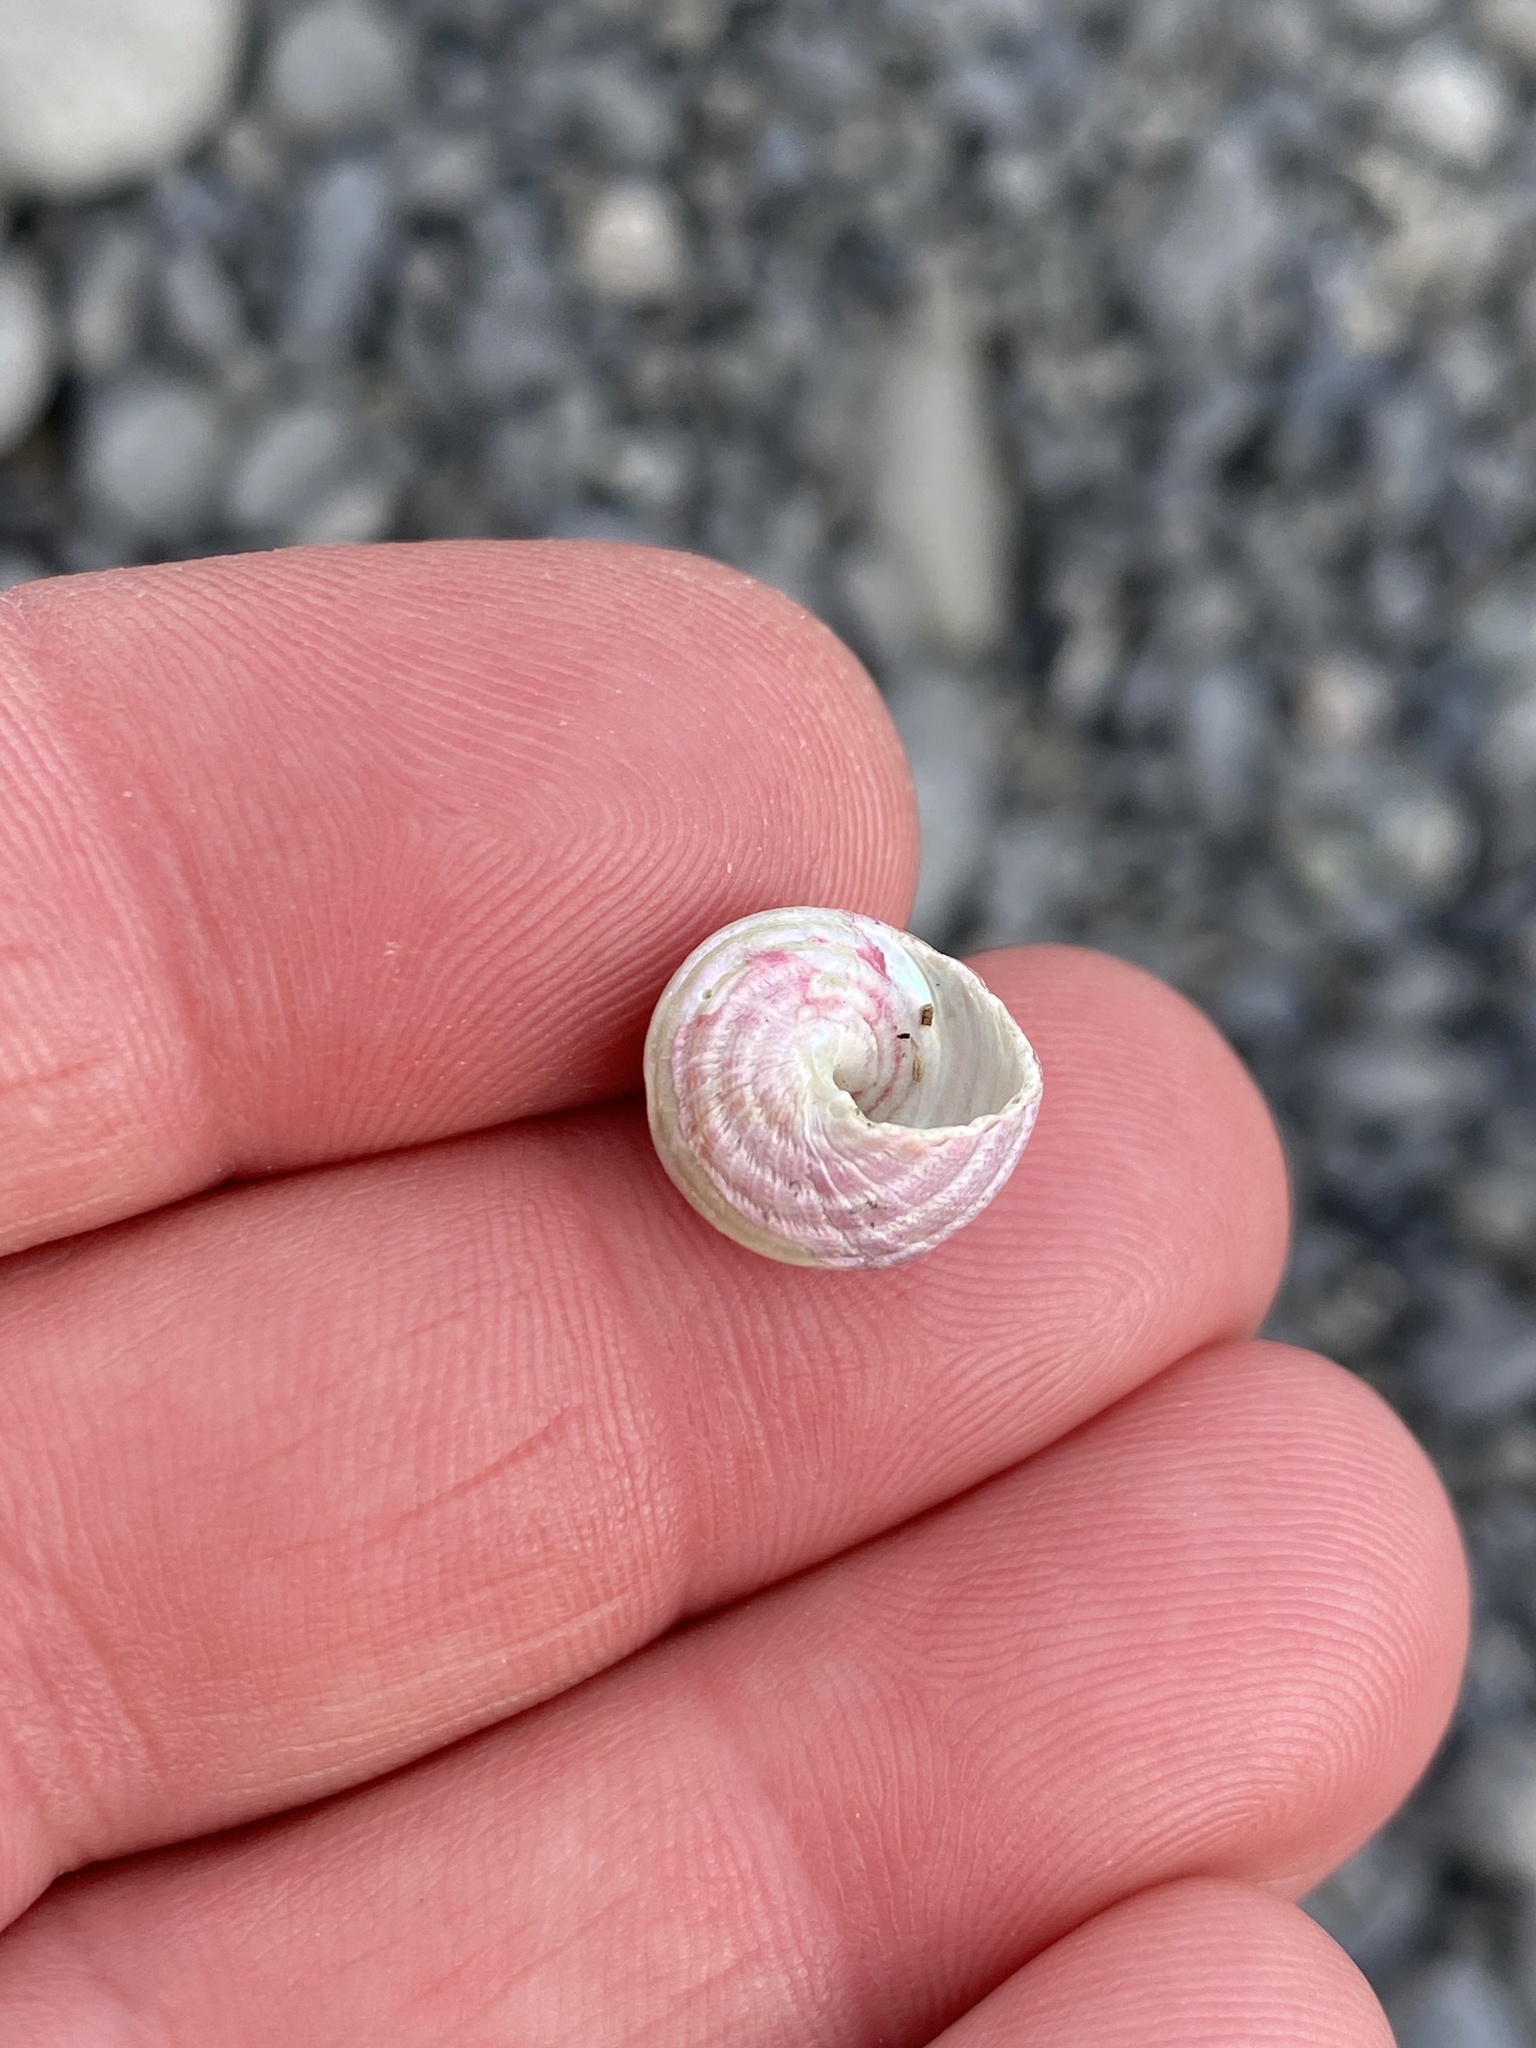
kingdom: Animalia
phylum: Mollusca
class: Gastropoda
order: Trochida
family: Trochidae
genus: Micrelenchus
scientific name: Micrelenchus purpureus
